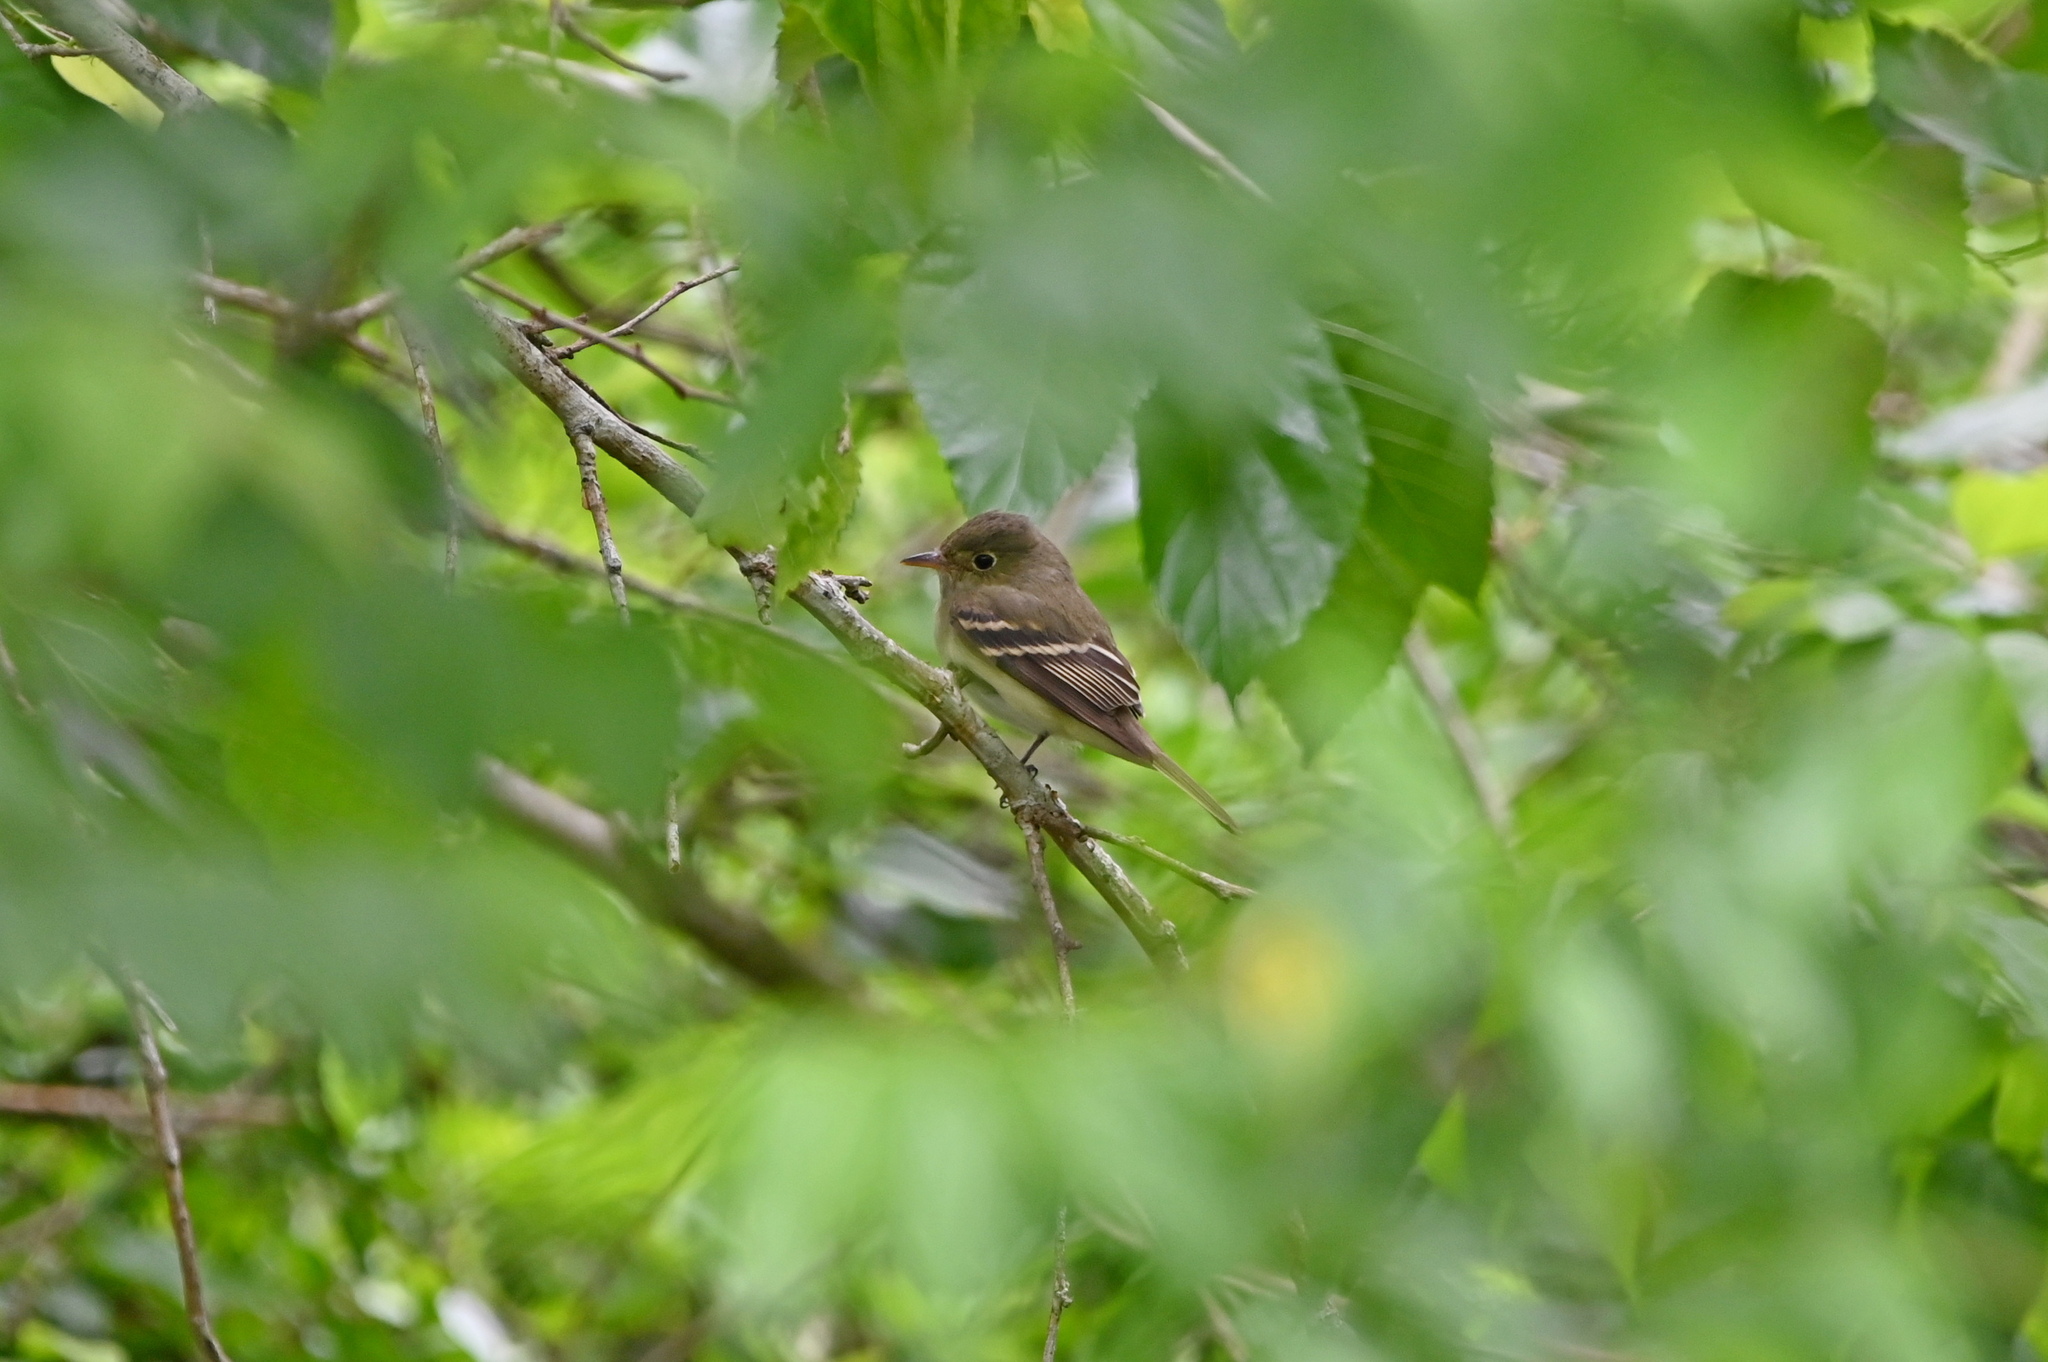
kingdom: Animalia
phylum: Chordata
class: Aves
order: Passeriformes
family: Tyrannidae
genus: Empidonax
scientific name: Empidonax virescens
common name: Acadian flycatcher
